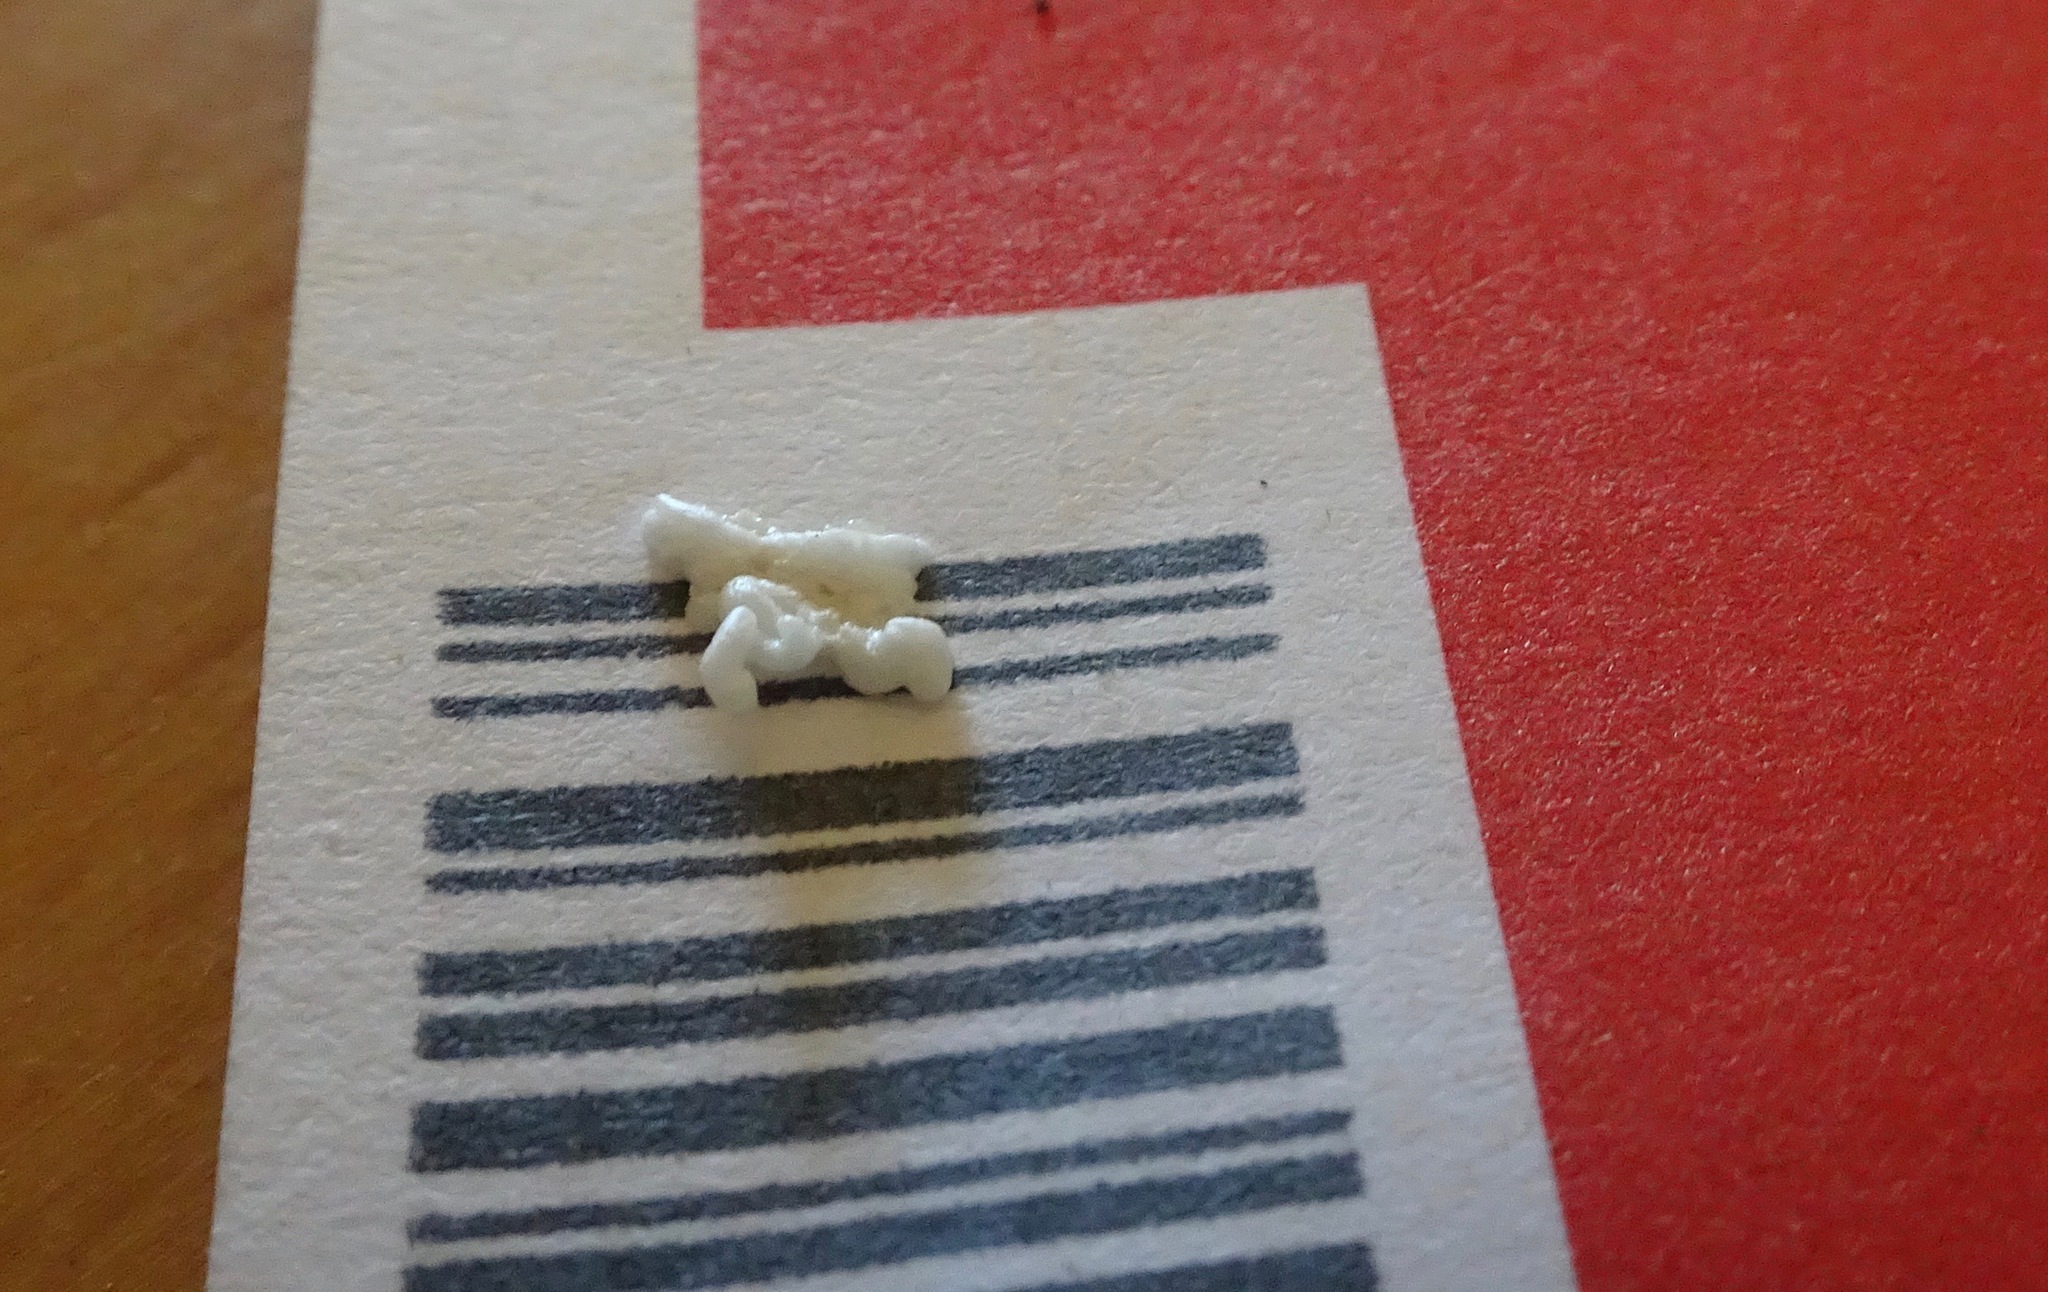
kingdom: Animalia
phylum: Arthropoda
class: Insecta
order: Diptera
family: Asilidae
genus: Mallophora
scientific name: Mallophora fautrix
